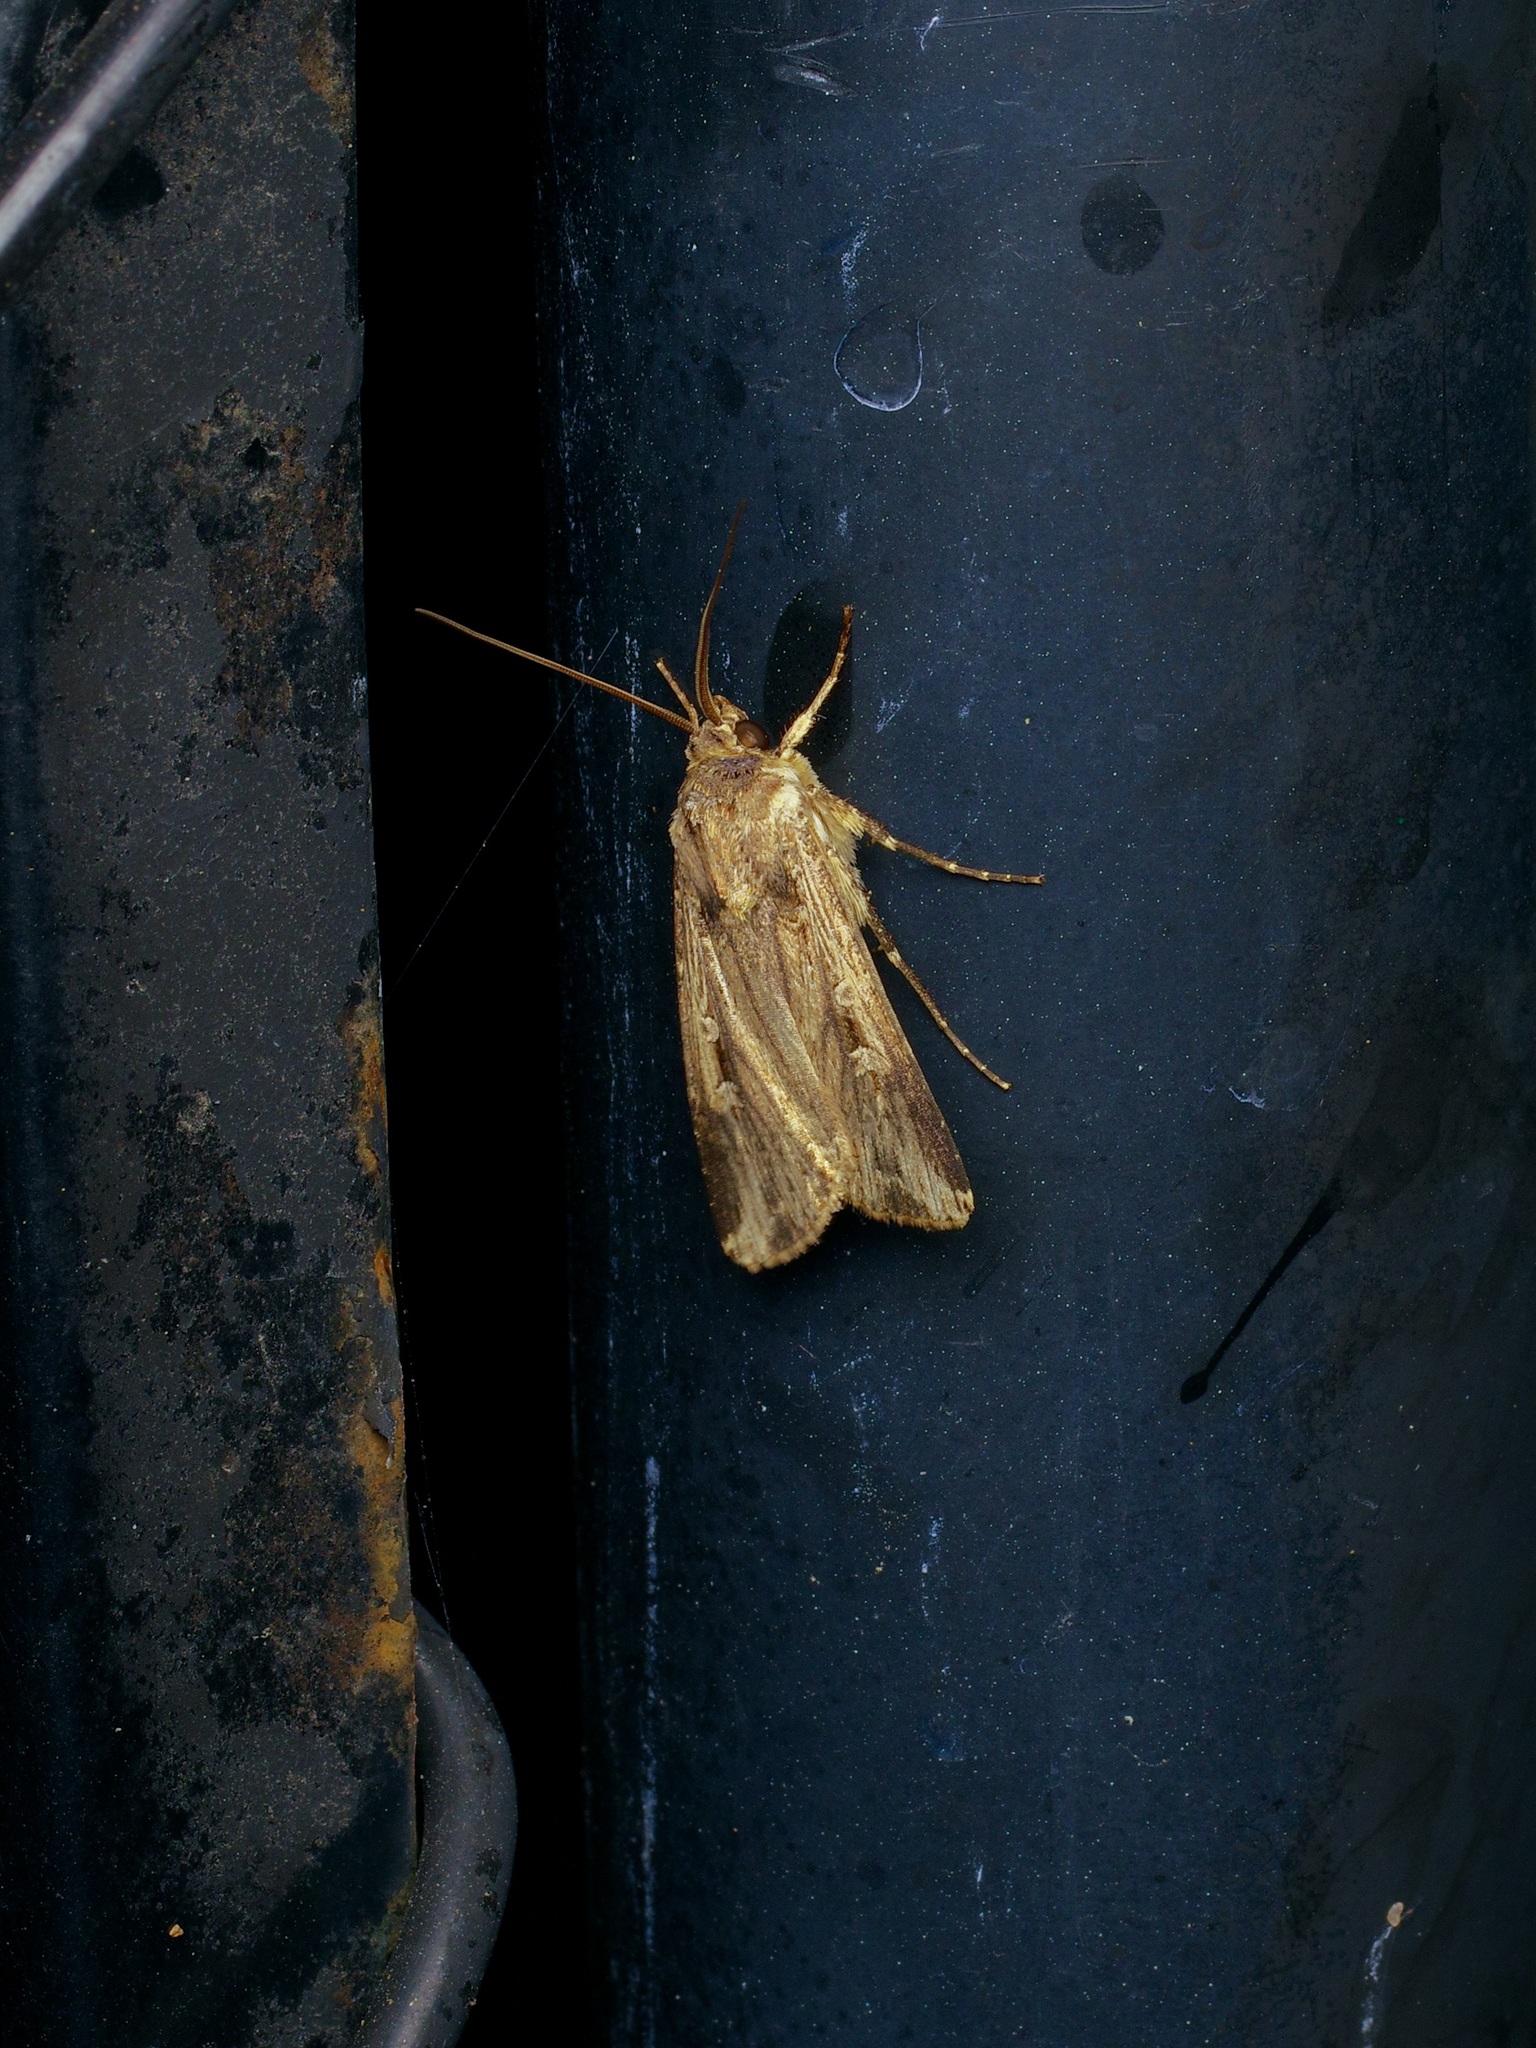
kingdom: Animalia
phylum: Arthropoda
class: Insecta
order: Lepidoptera
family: Noctuidae
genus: Feltia
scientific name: Feltia subterranea
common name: Granulate cutworm
